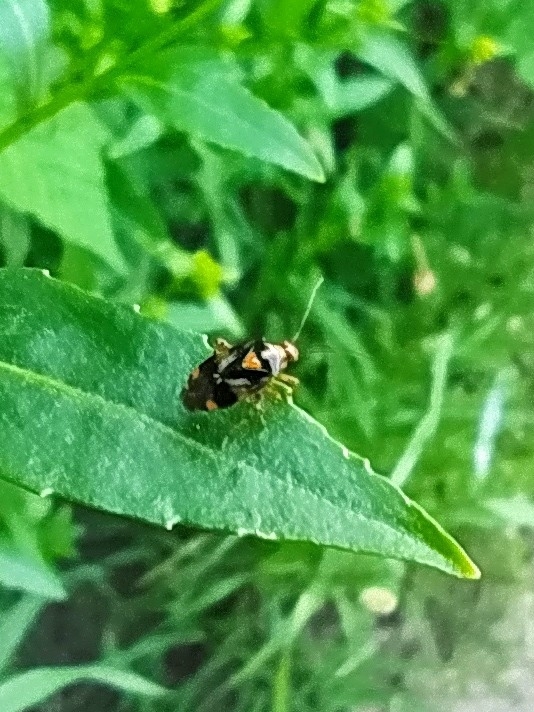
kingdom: Animalia
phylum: Arthropoda
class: Insecta
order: Hemiptera
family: Miridae
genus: Liocoris
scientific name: Liocoris tripustulatus
